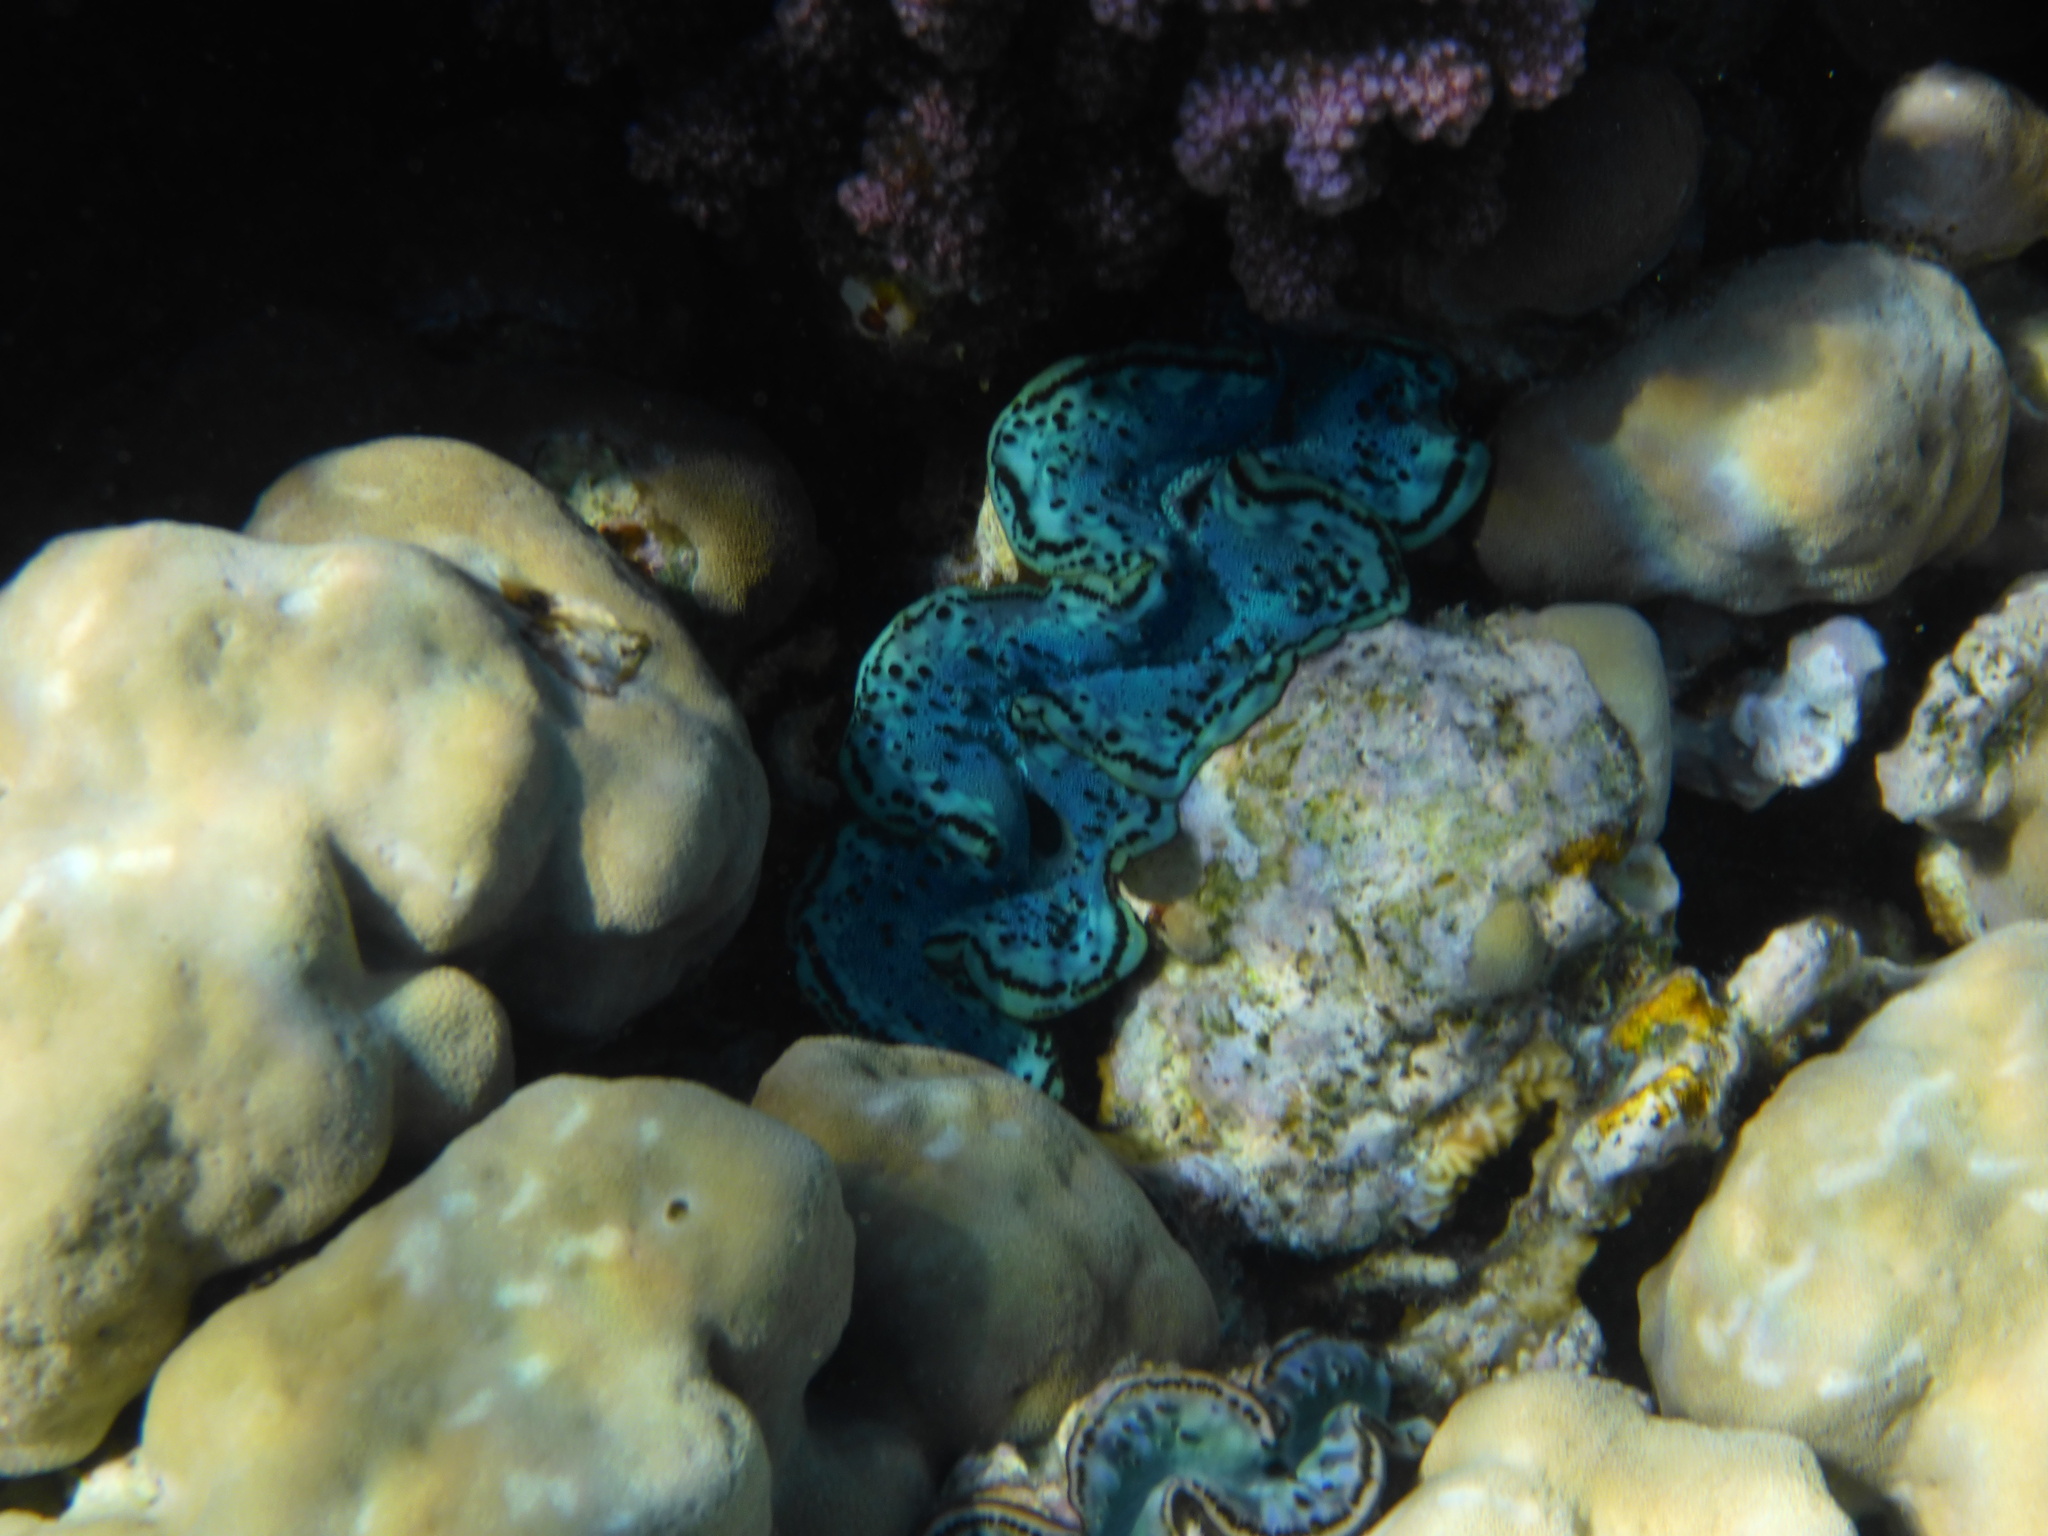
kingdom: Animalia
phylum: Mollusca
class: Bivalvia
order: Cardiida
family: Cardiidae
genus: Tridacna
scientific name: Tridacna maxima
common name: Small giant clam
